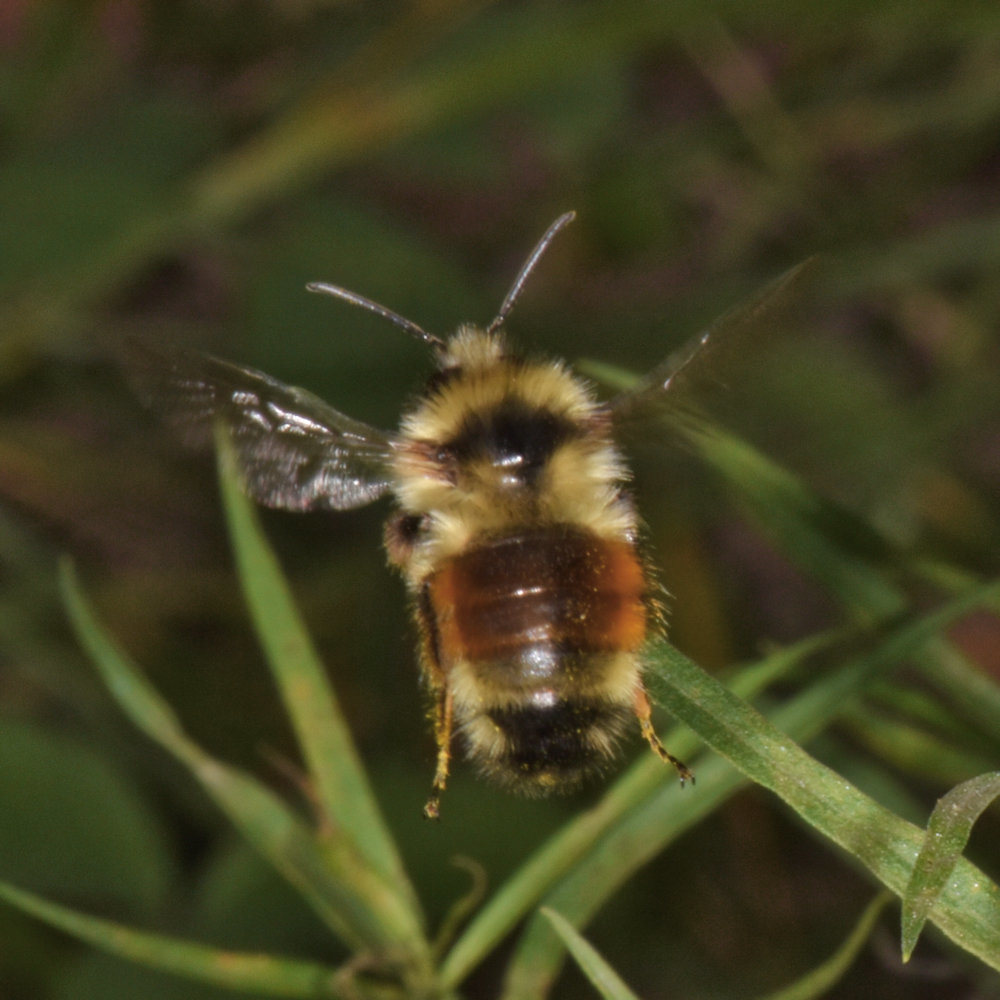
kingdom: Animalia
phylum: Arthropoda
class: Insecta
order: Hymenoptera
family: Apidae
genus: Bombus
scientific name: Bombus ternarius
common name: Tri-colored bumble bee
